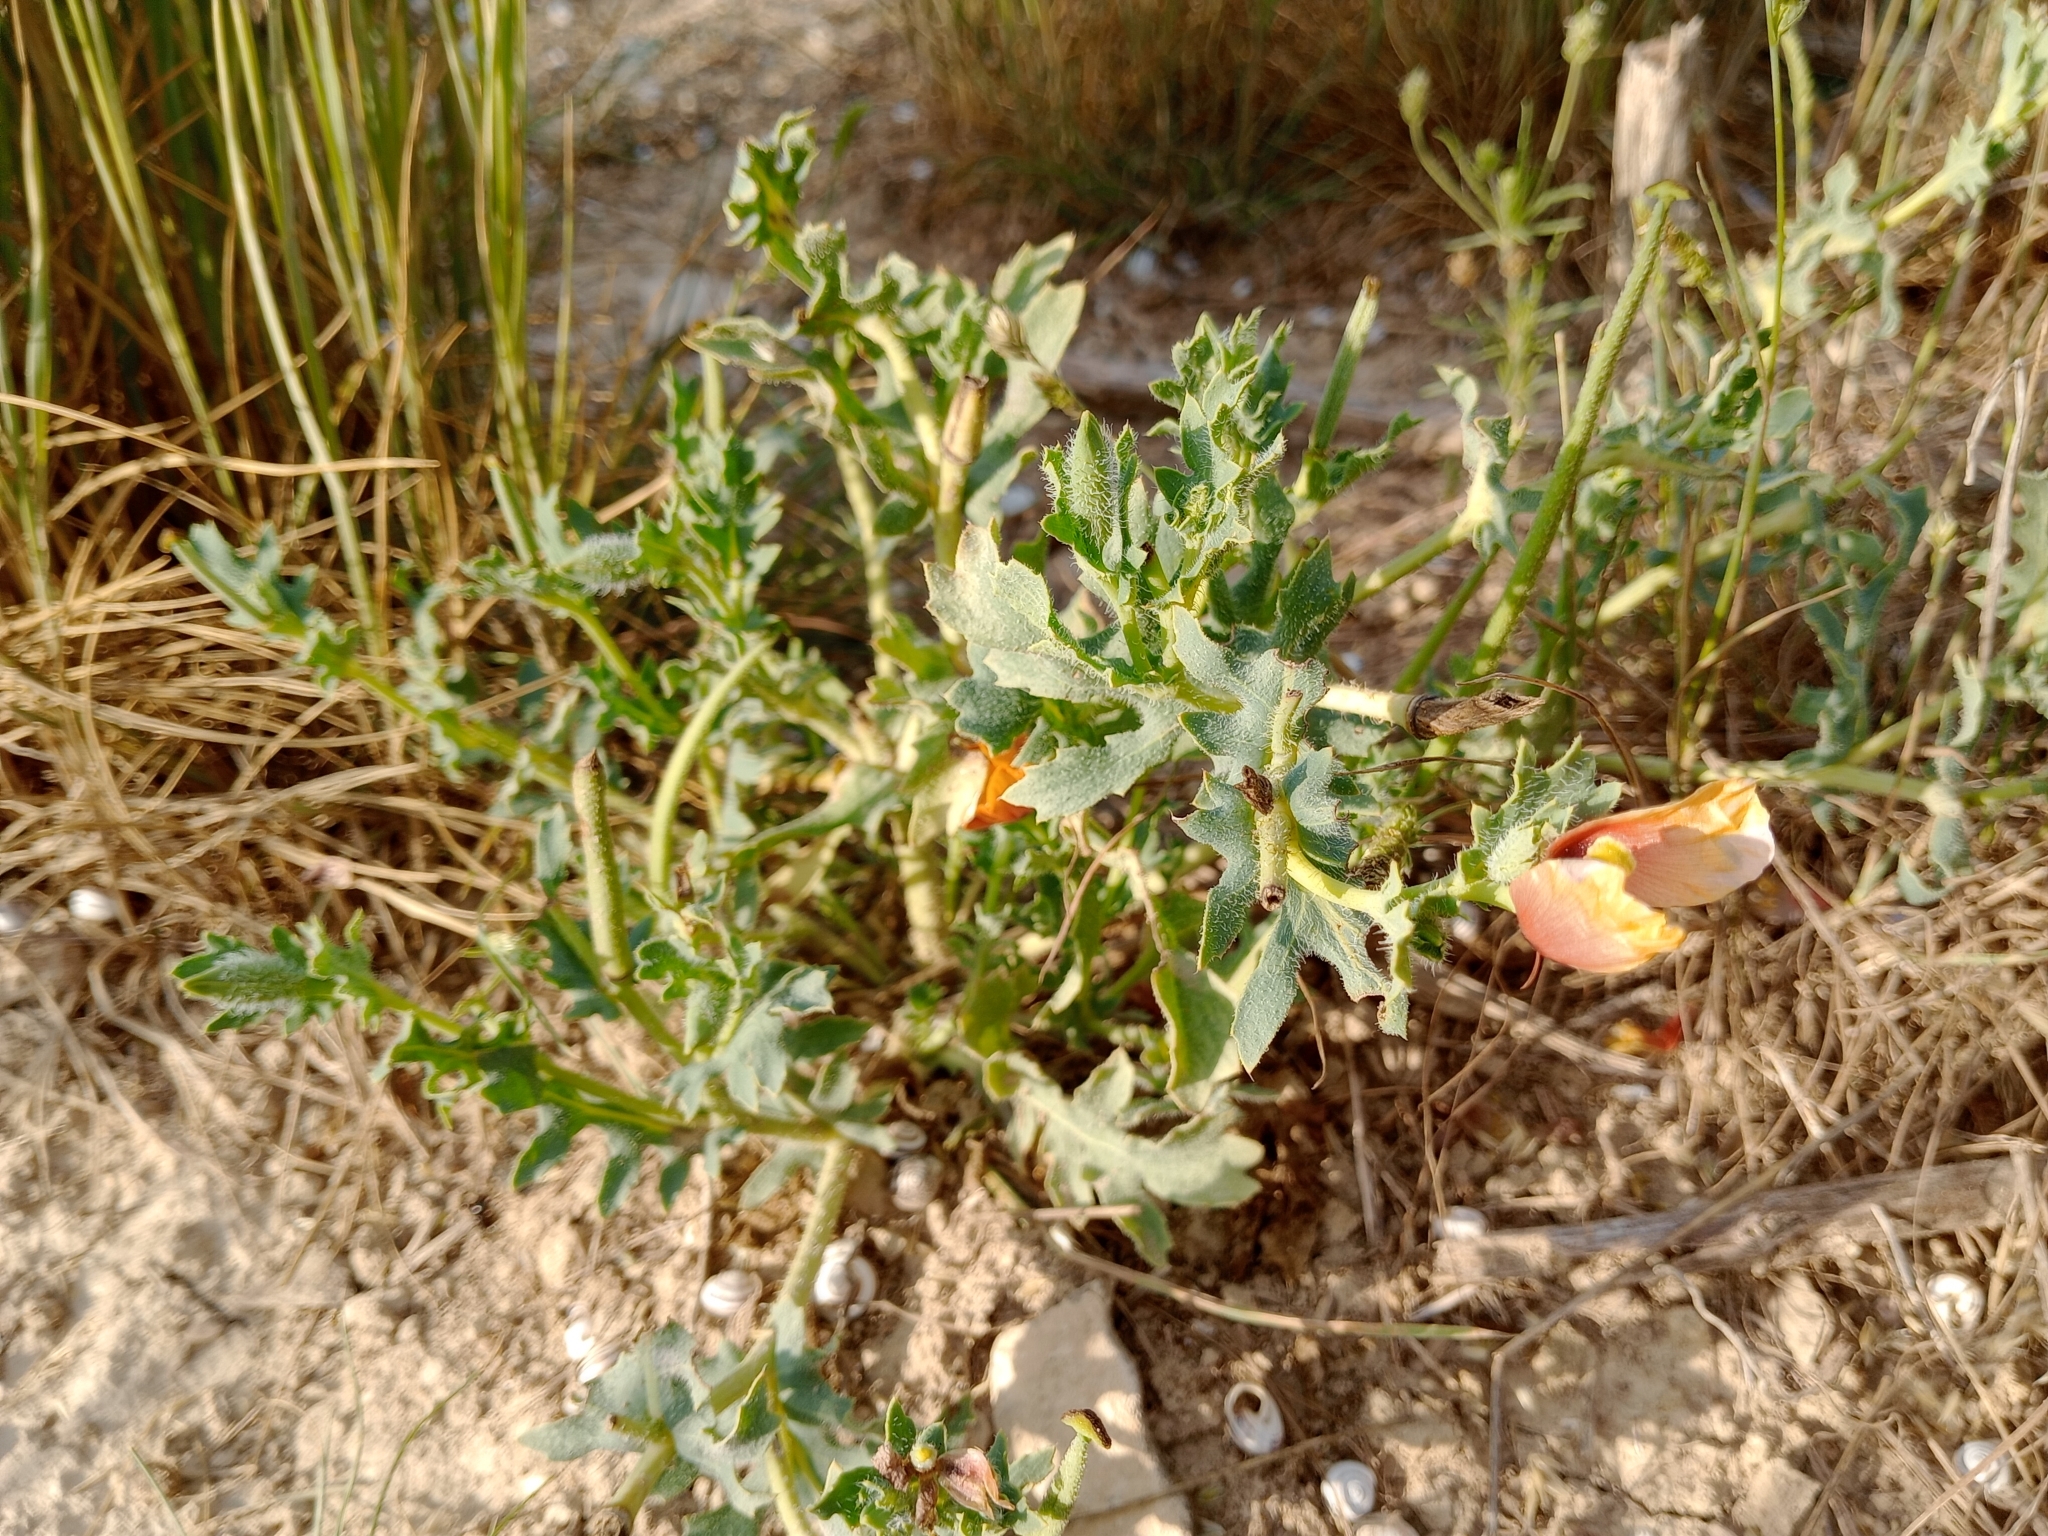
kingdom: Plantae
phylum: Tracheophyta
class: Magnoliopsida
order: Ranunculales
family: Papaveraceae
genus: Glaucium
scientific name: Glaucium corniculatum
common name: Red horned-poppy
